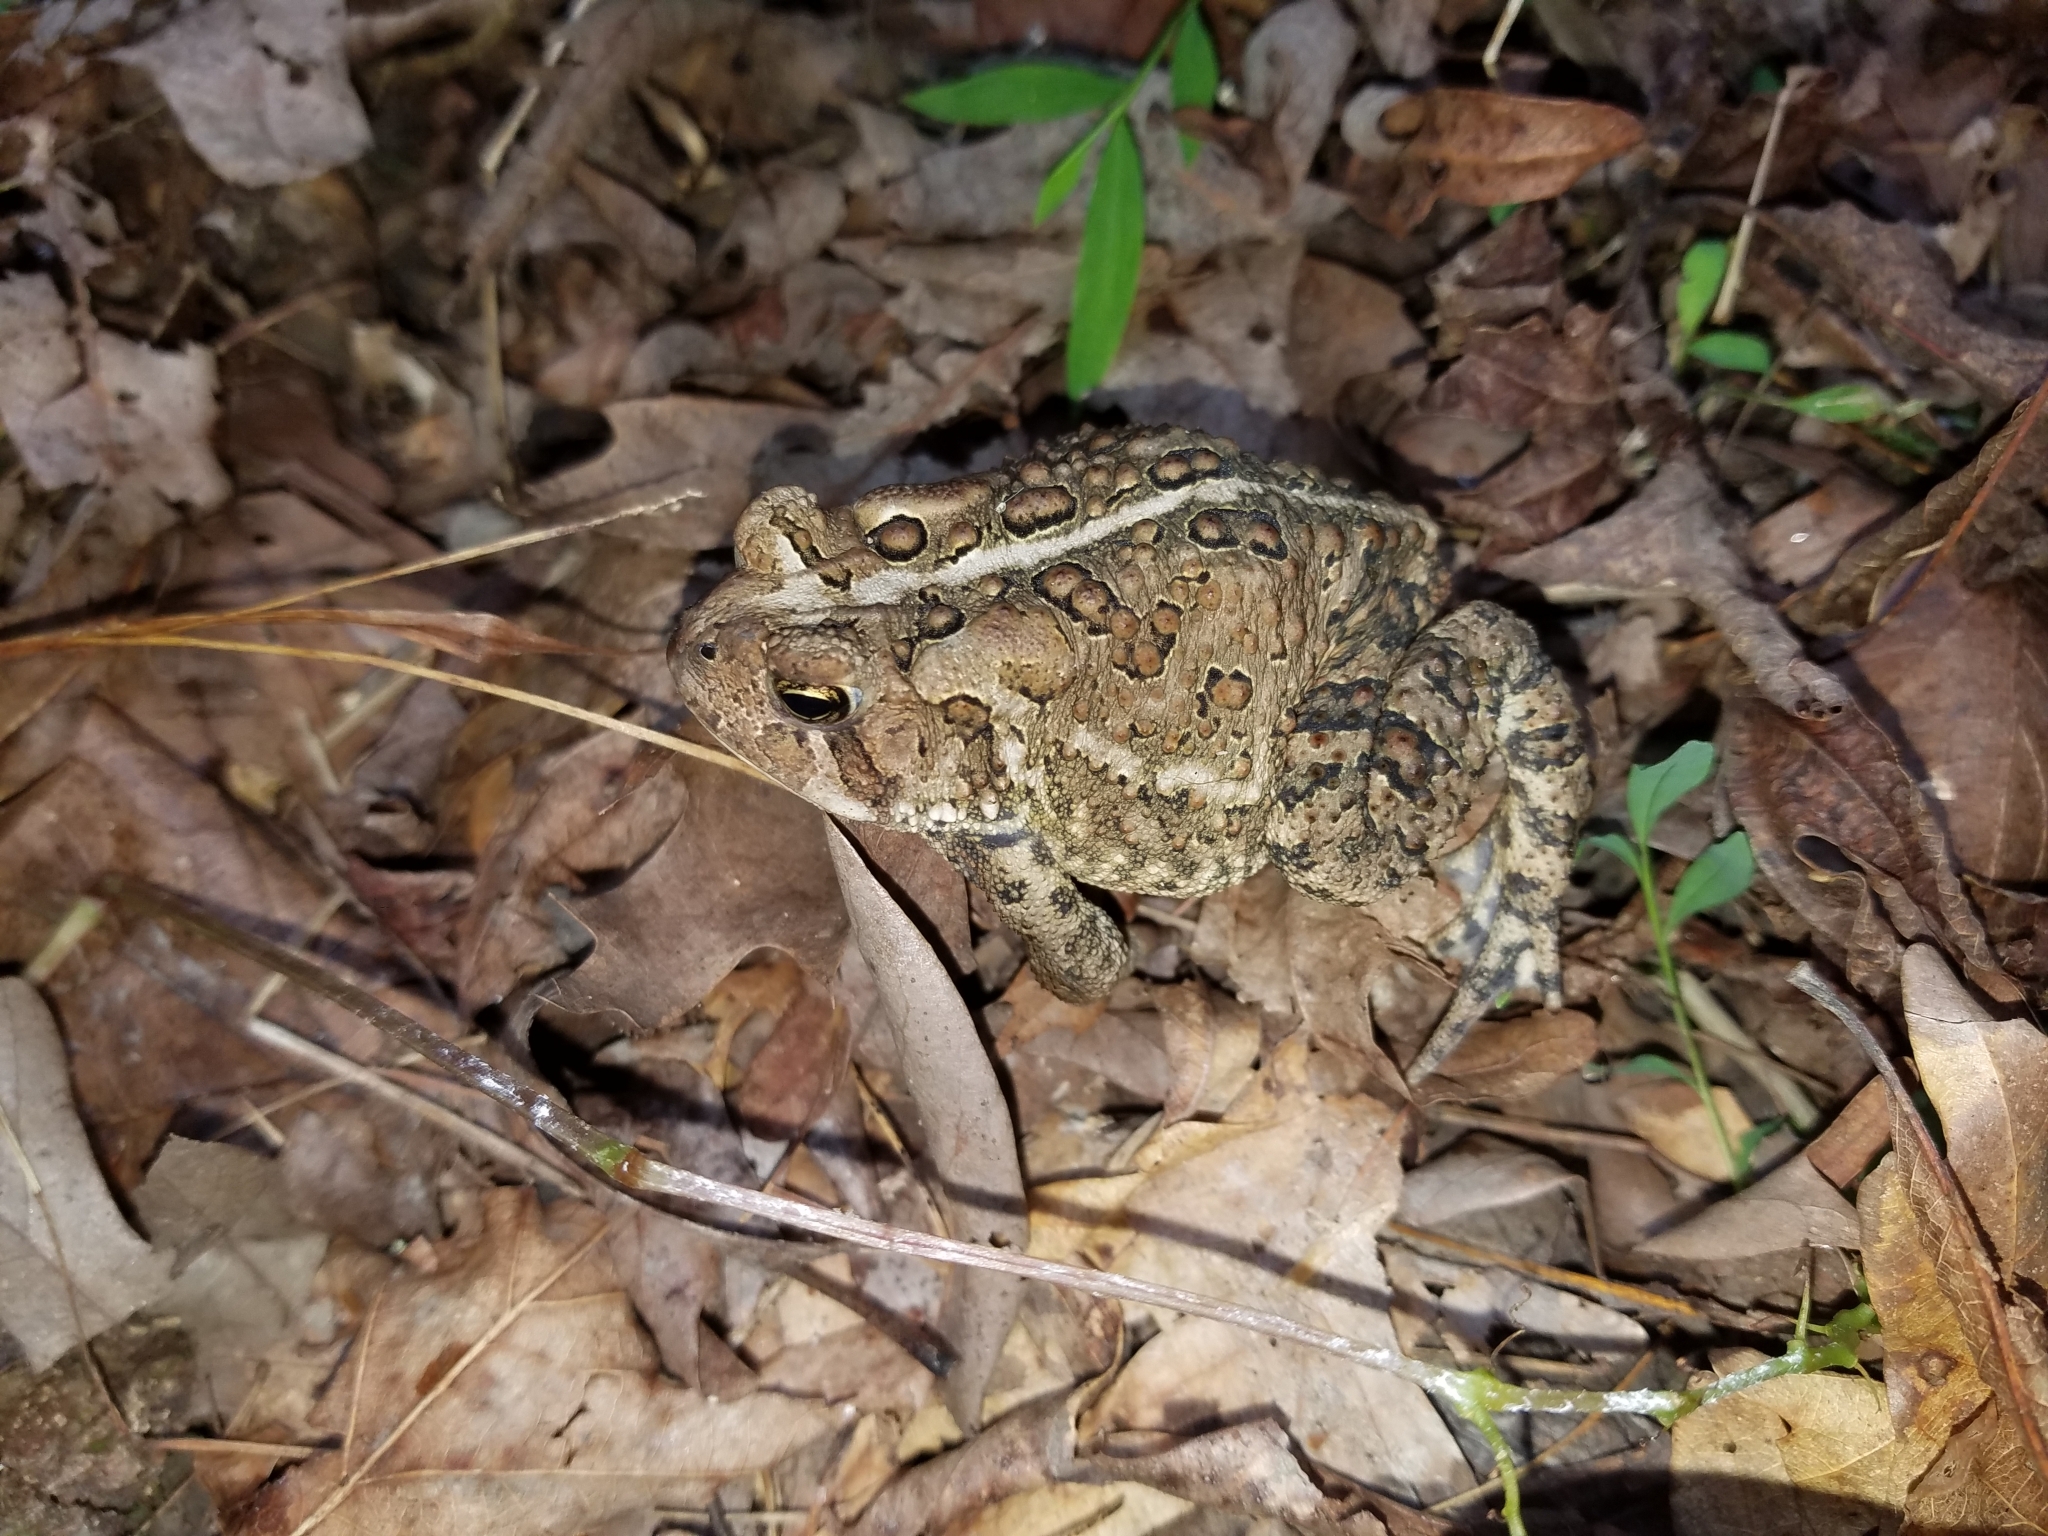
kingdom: Animalia
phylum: Chordata
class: Amphibia
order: Anura
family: Bufonidae
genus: Anaxyrus
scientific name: Anaxyrus americanus
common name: American toad
